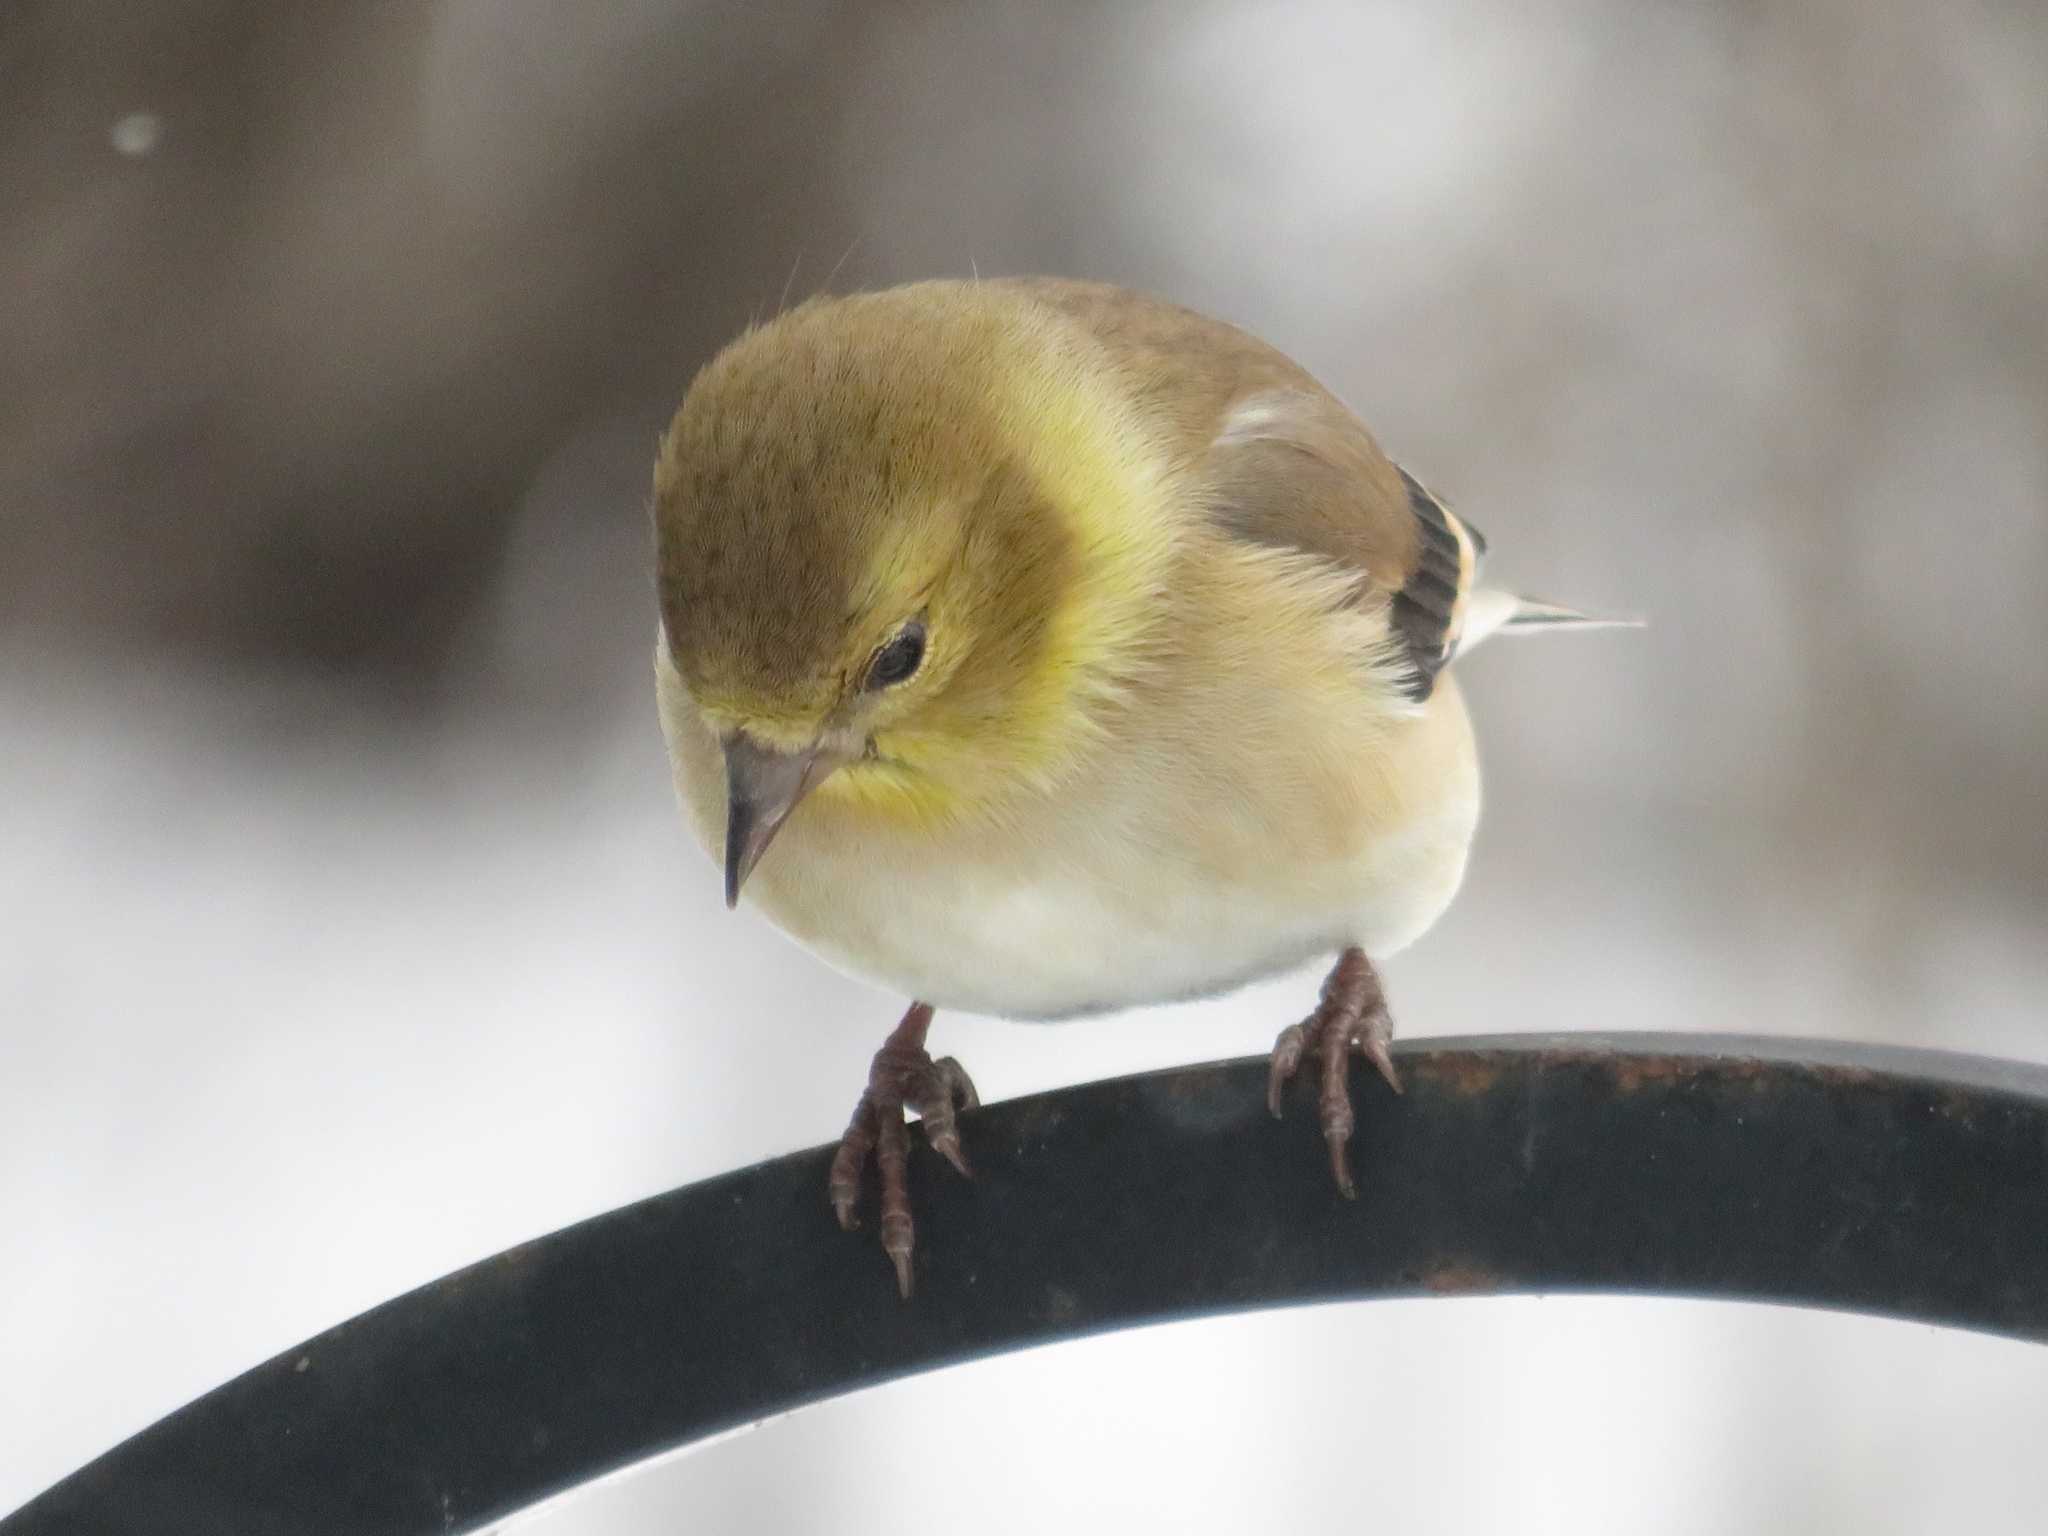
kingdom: Animalia
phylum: Chordata
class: Aves
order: Passeriformes
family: Fringillidae
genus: Spinus
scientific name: Spinus tristis
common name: American goldfinch
